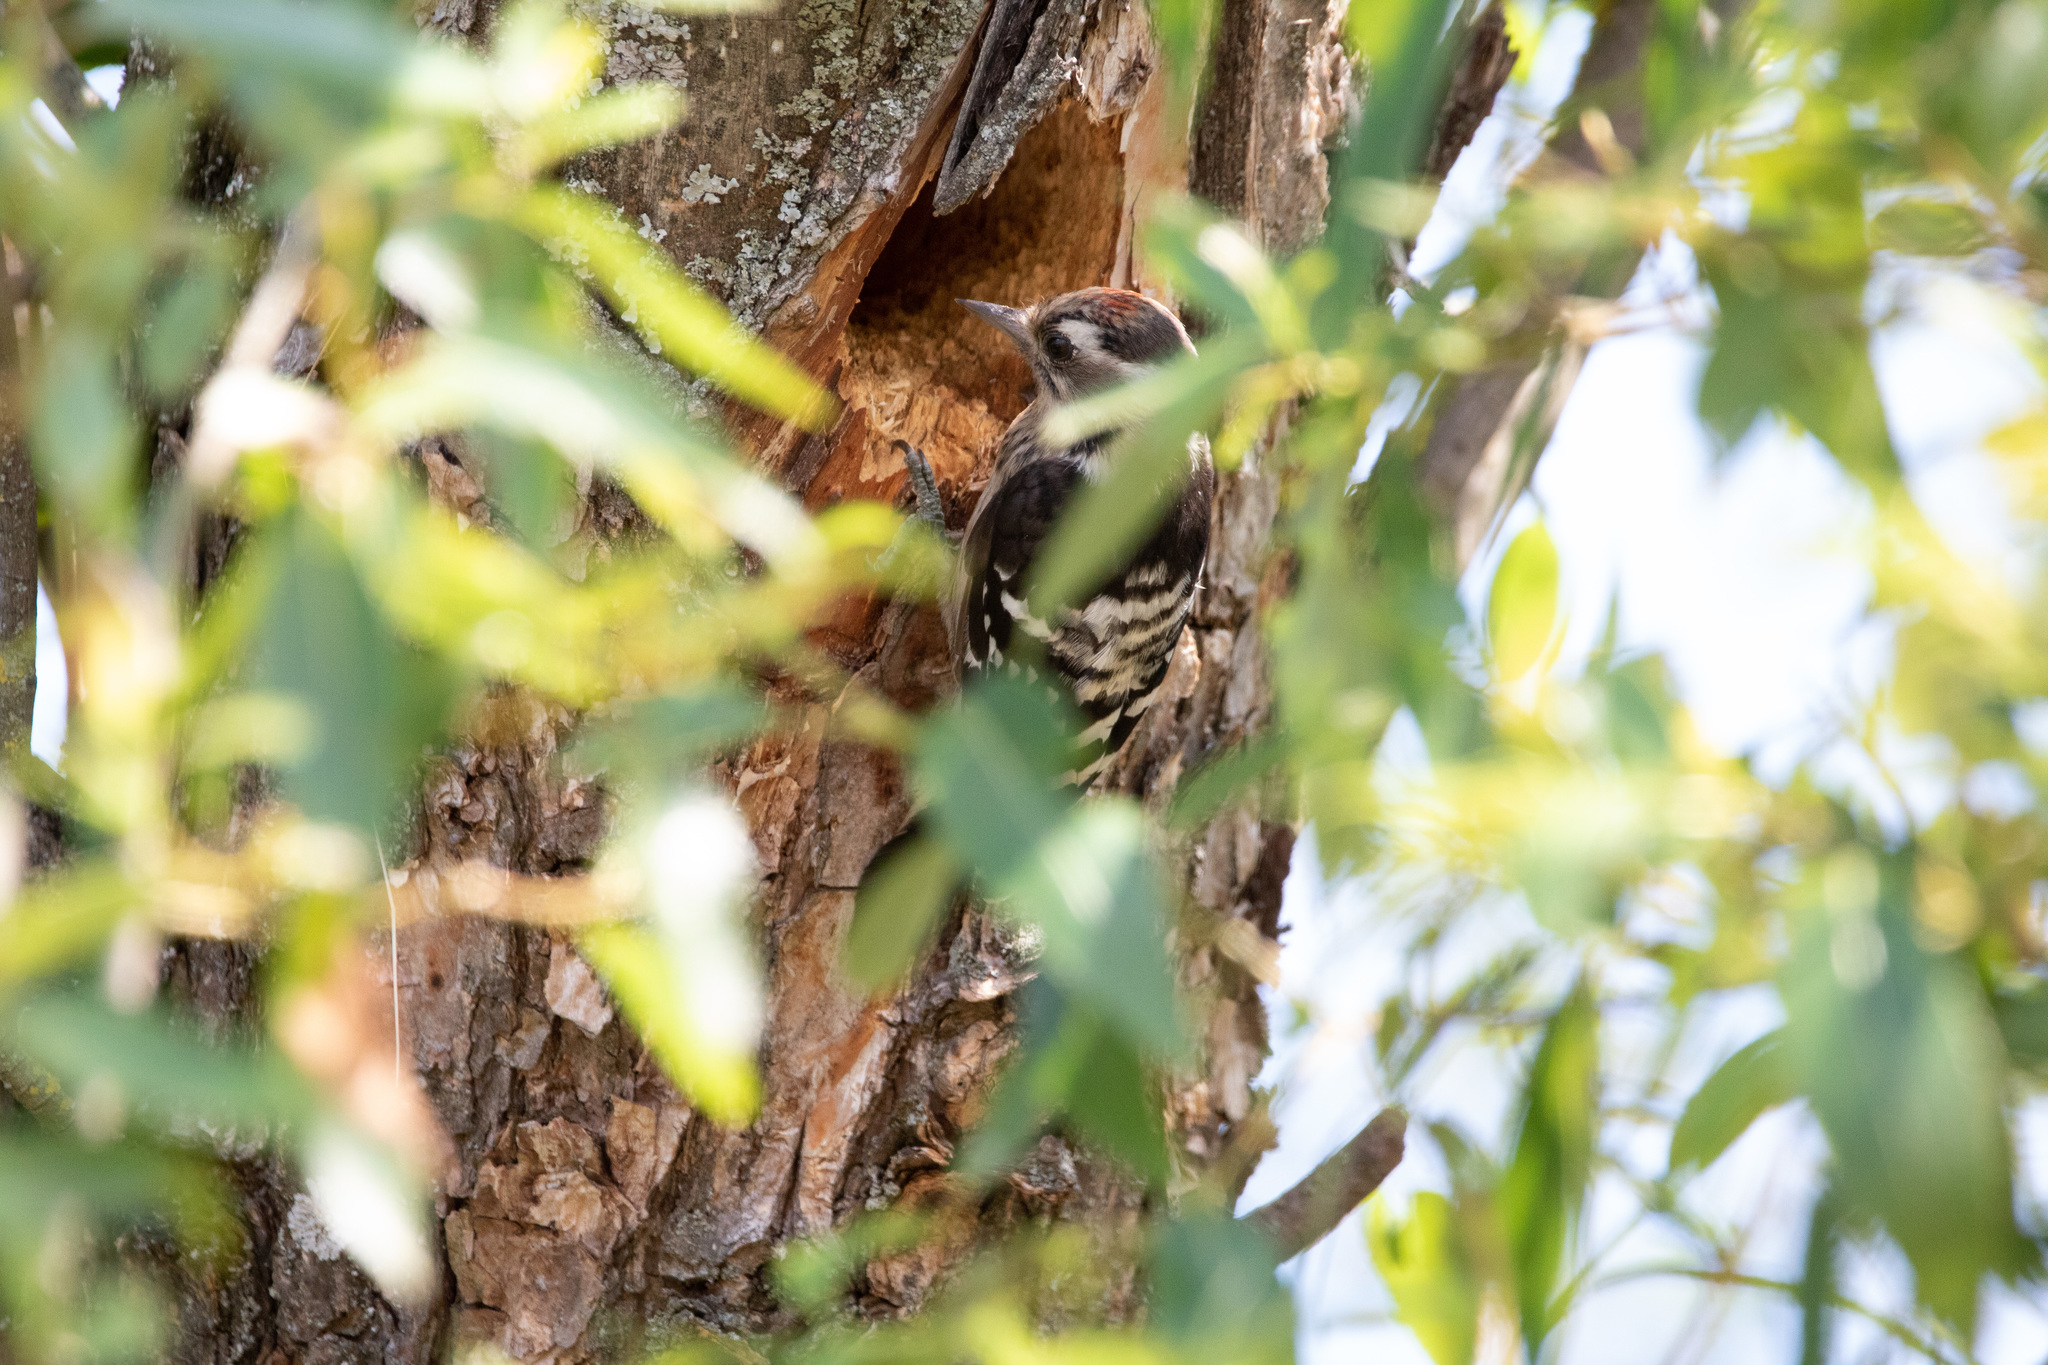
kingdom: Animalia
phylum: Chordata
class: Aves
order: Piciformes
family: Picidae
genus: Dryobates
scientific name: Dryobates minor
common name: Lesser spotted woodpecker
